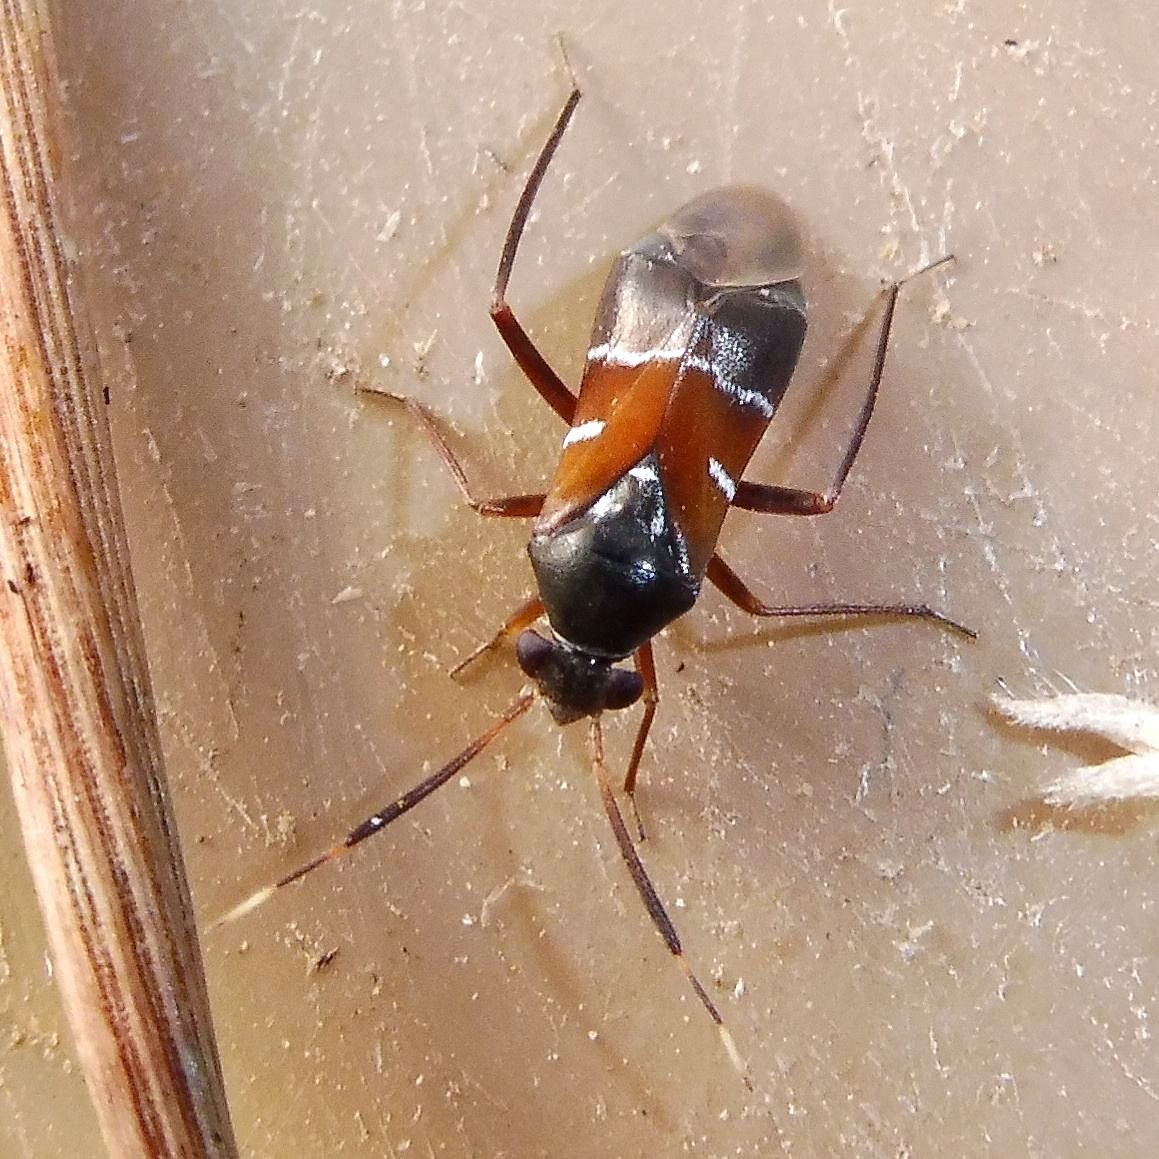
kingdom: Animalia
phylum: Arthropoda
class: Insecta
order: Hemiptera
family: Miridae
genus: Pilophorus
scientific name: Pilophorus cinnamopterus
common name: Plant bug
